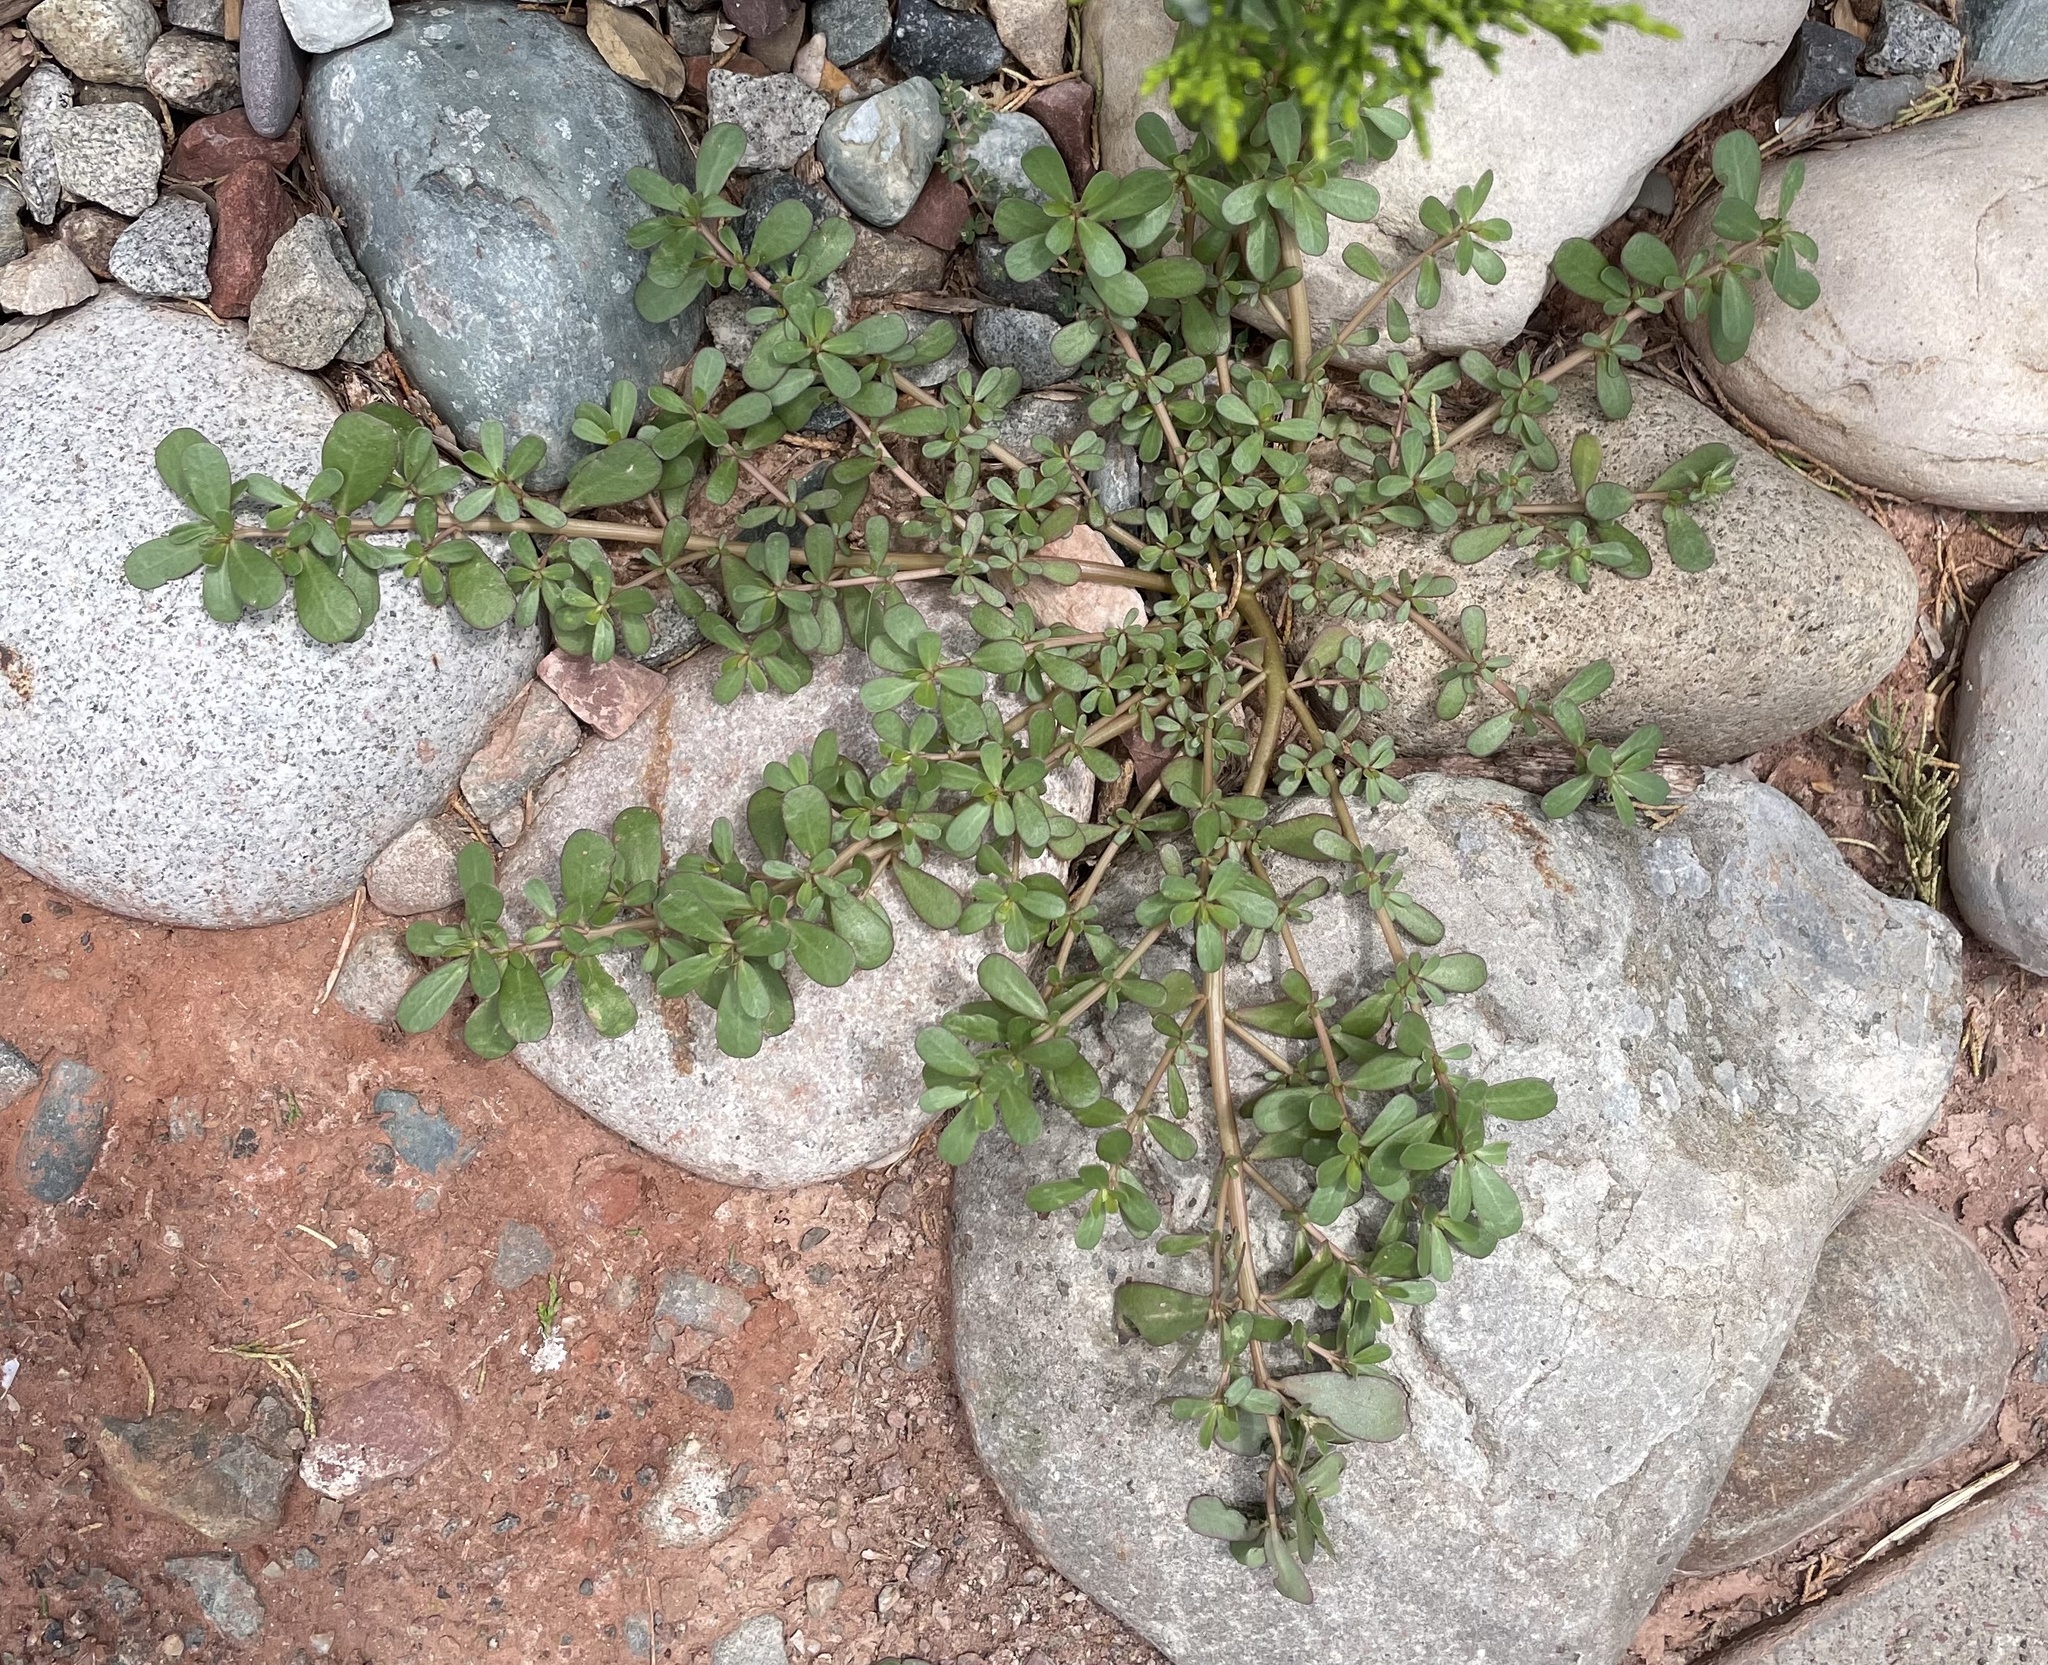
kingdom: Plantae
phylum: Tracheophyta
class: Magnoliopsida
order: Caryophyllales
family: Portulacaceae
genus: Portulaca
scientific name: Portulaca oleracea
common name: Common purslane
